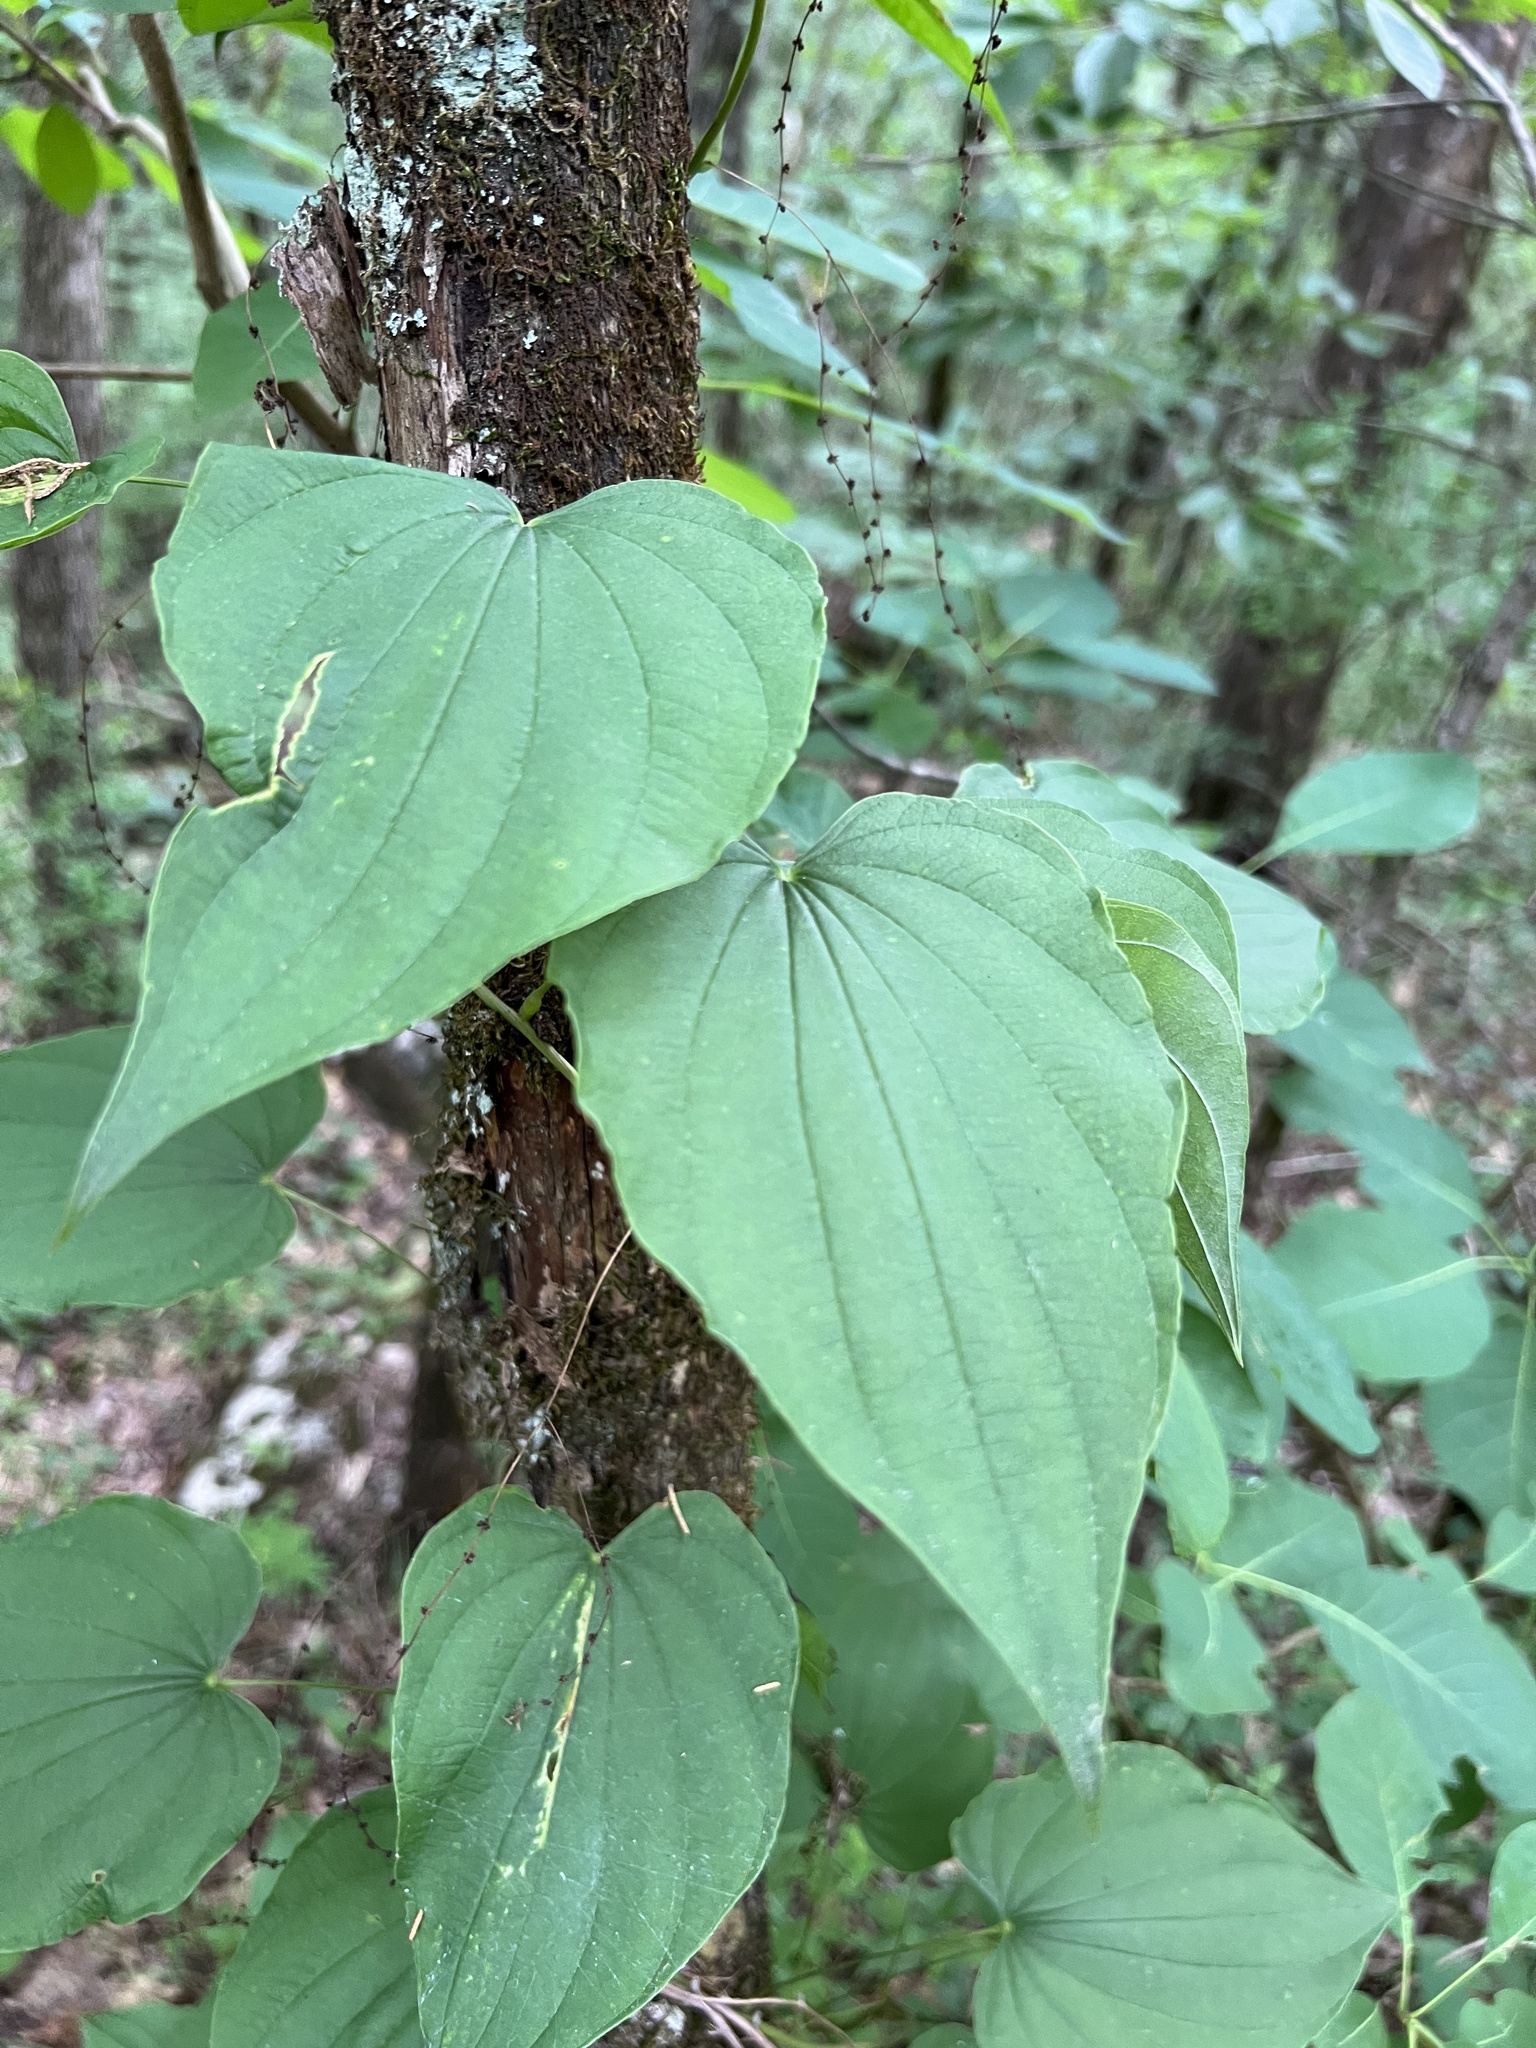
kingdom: Plantae
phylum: Tracheophyta
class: Liliopsida
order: Dioscoreales
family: Dioscoreaceae
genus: Dioscorea
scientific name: Dioscorea villosa
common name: Wild yam
